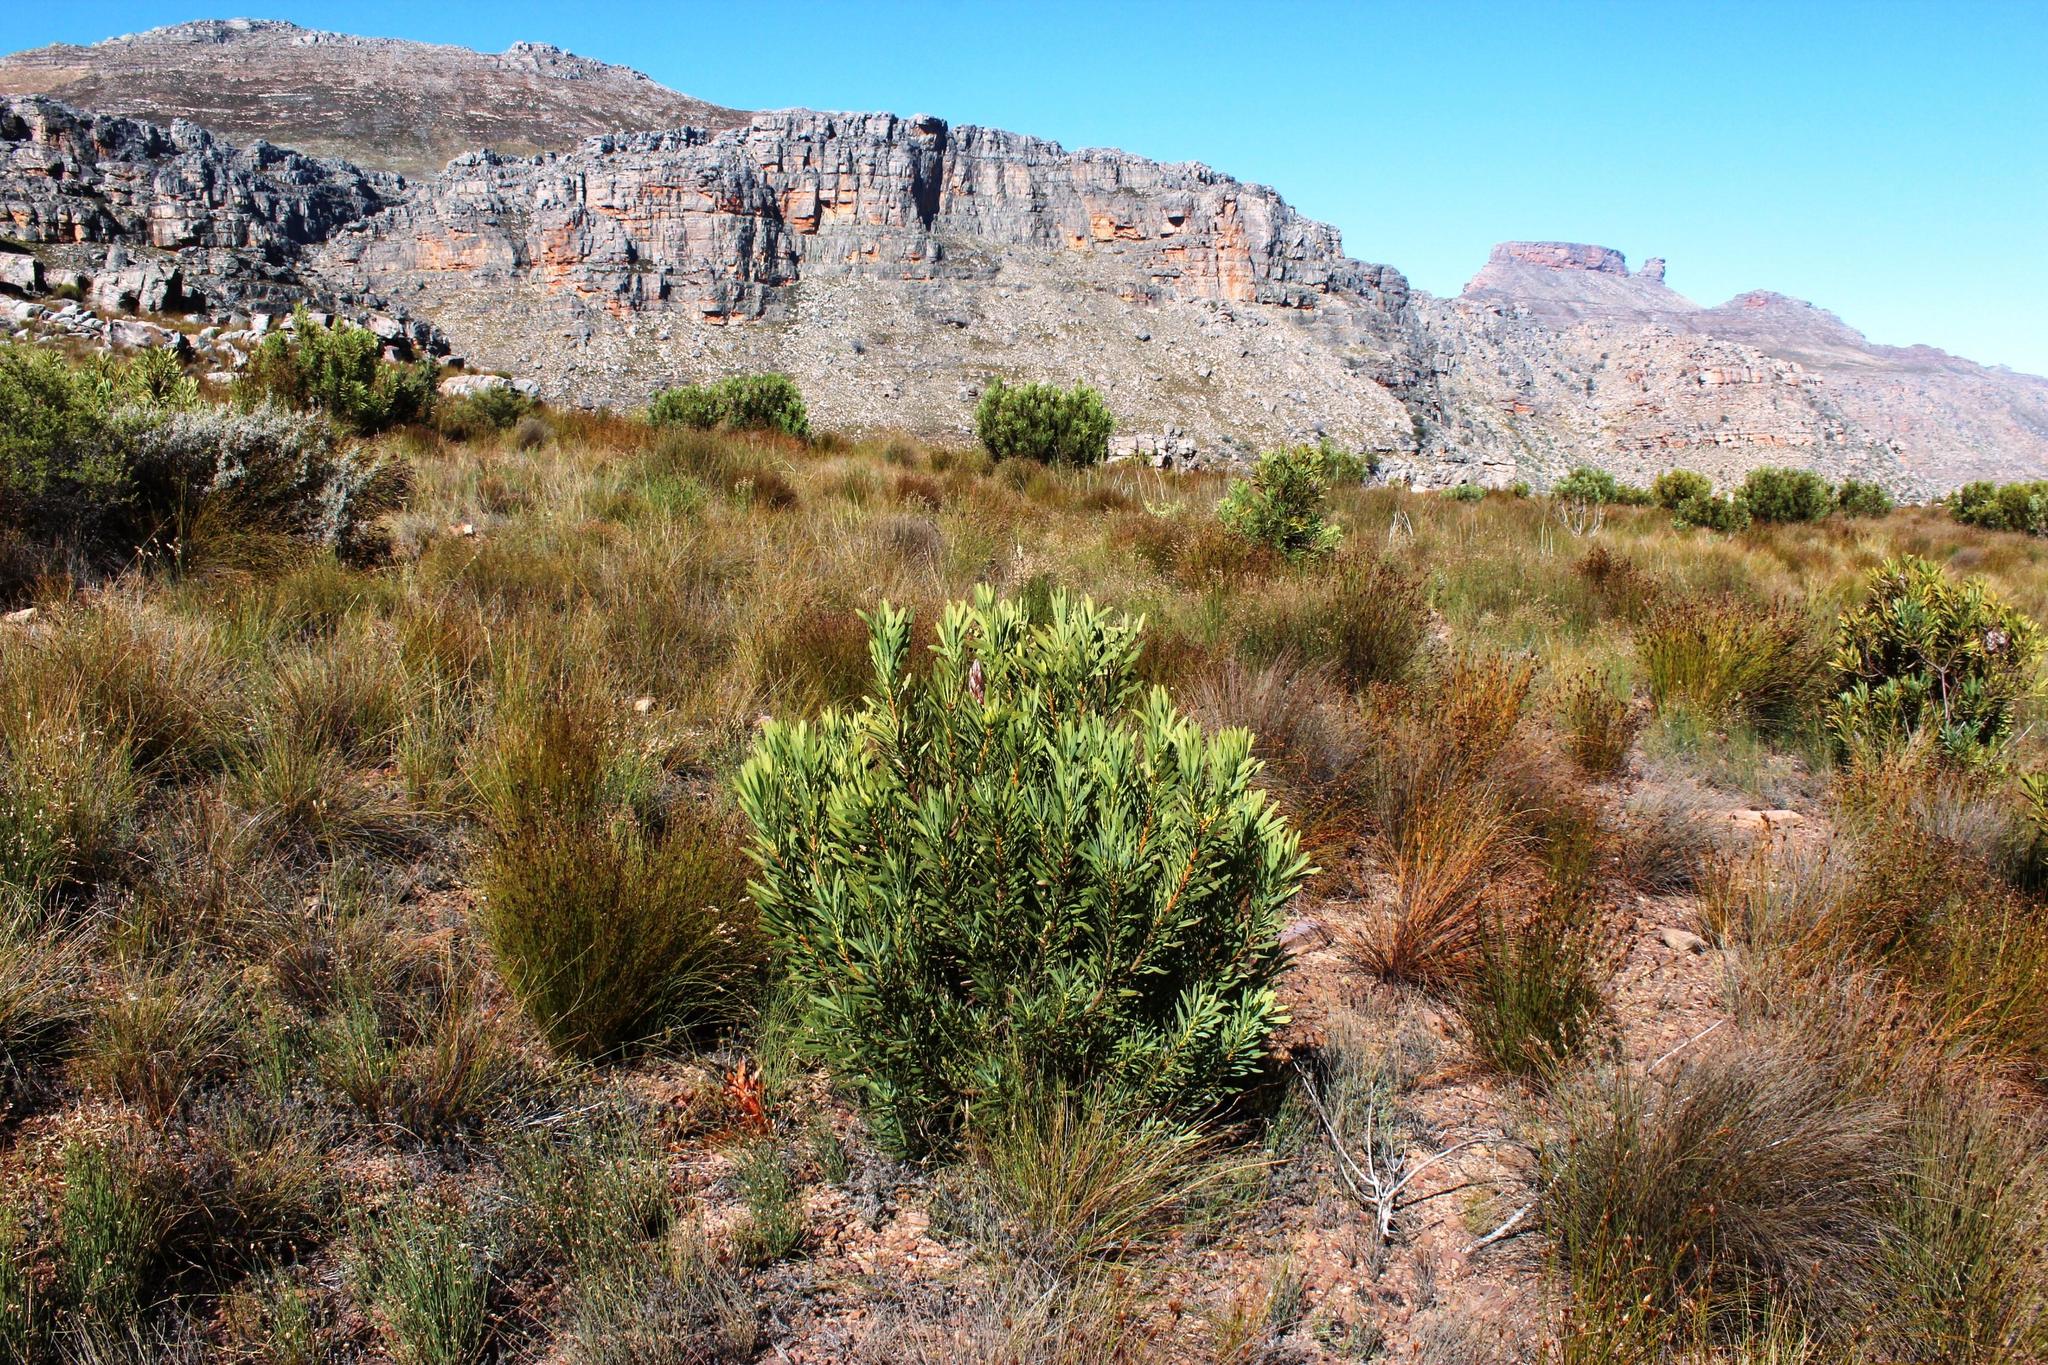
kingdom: Plantae
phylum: Tracheophyta
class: Magnoliopsida
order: Proteales
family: Proteaceae
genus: Protea
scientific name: Protea repens
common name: Sugarbush
